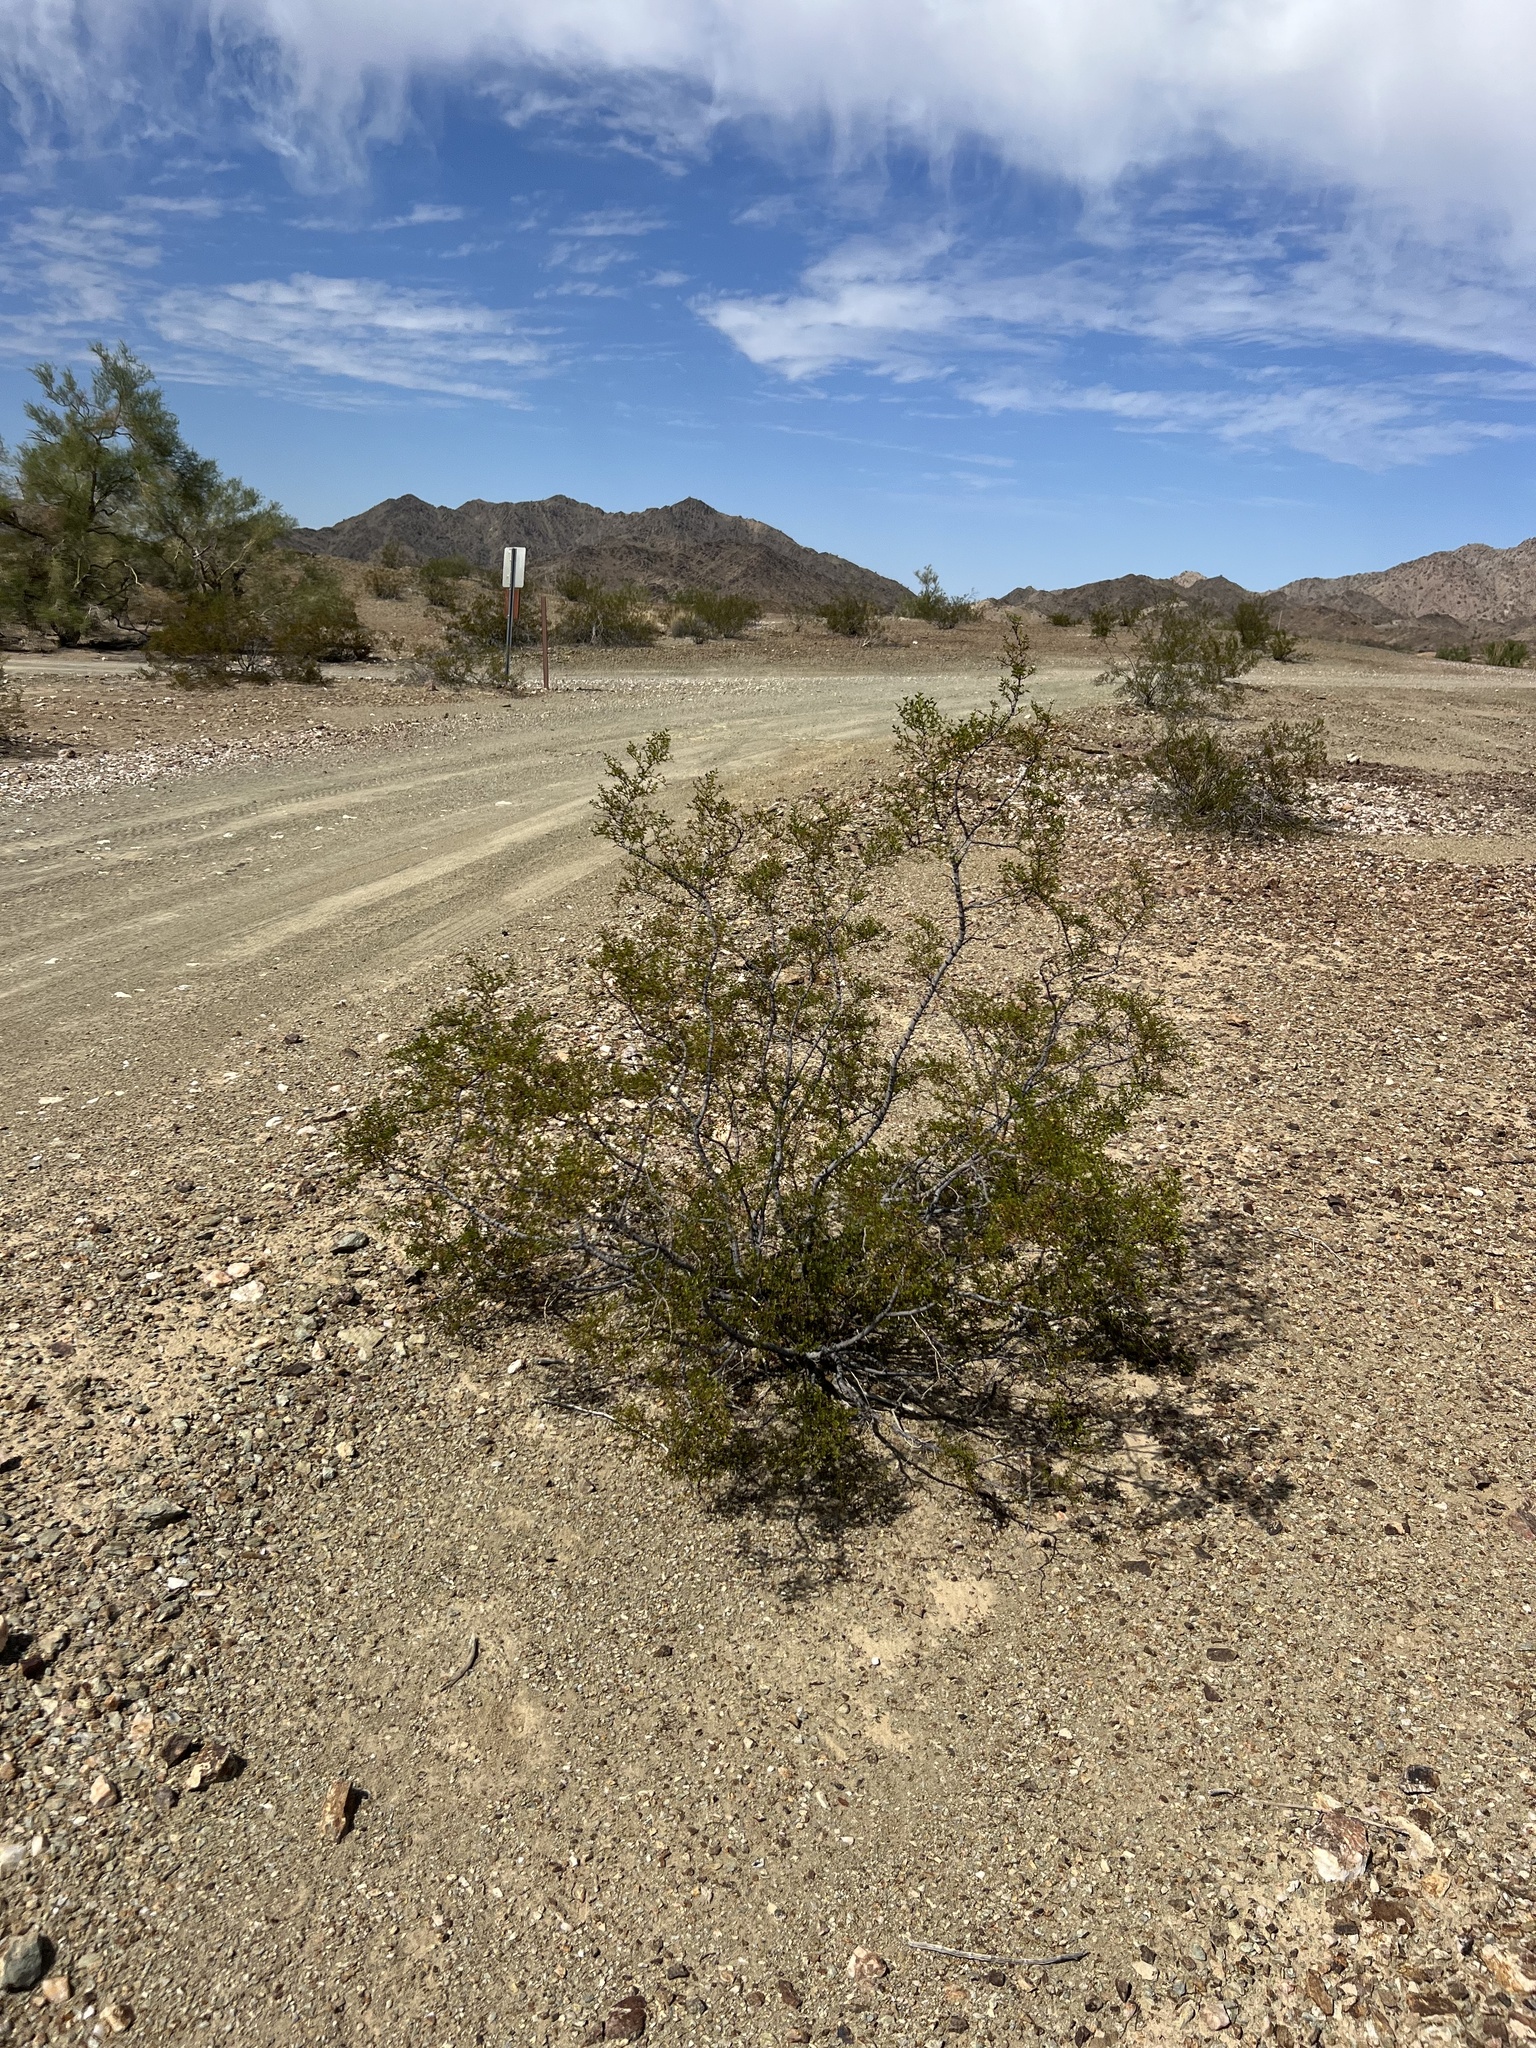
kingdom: Plantae
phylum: Tracheophyta
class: Magnoliopsida
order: Zygophyllales
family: Zygophyllaceae
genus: Larrea
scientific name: Larrea tridentata
